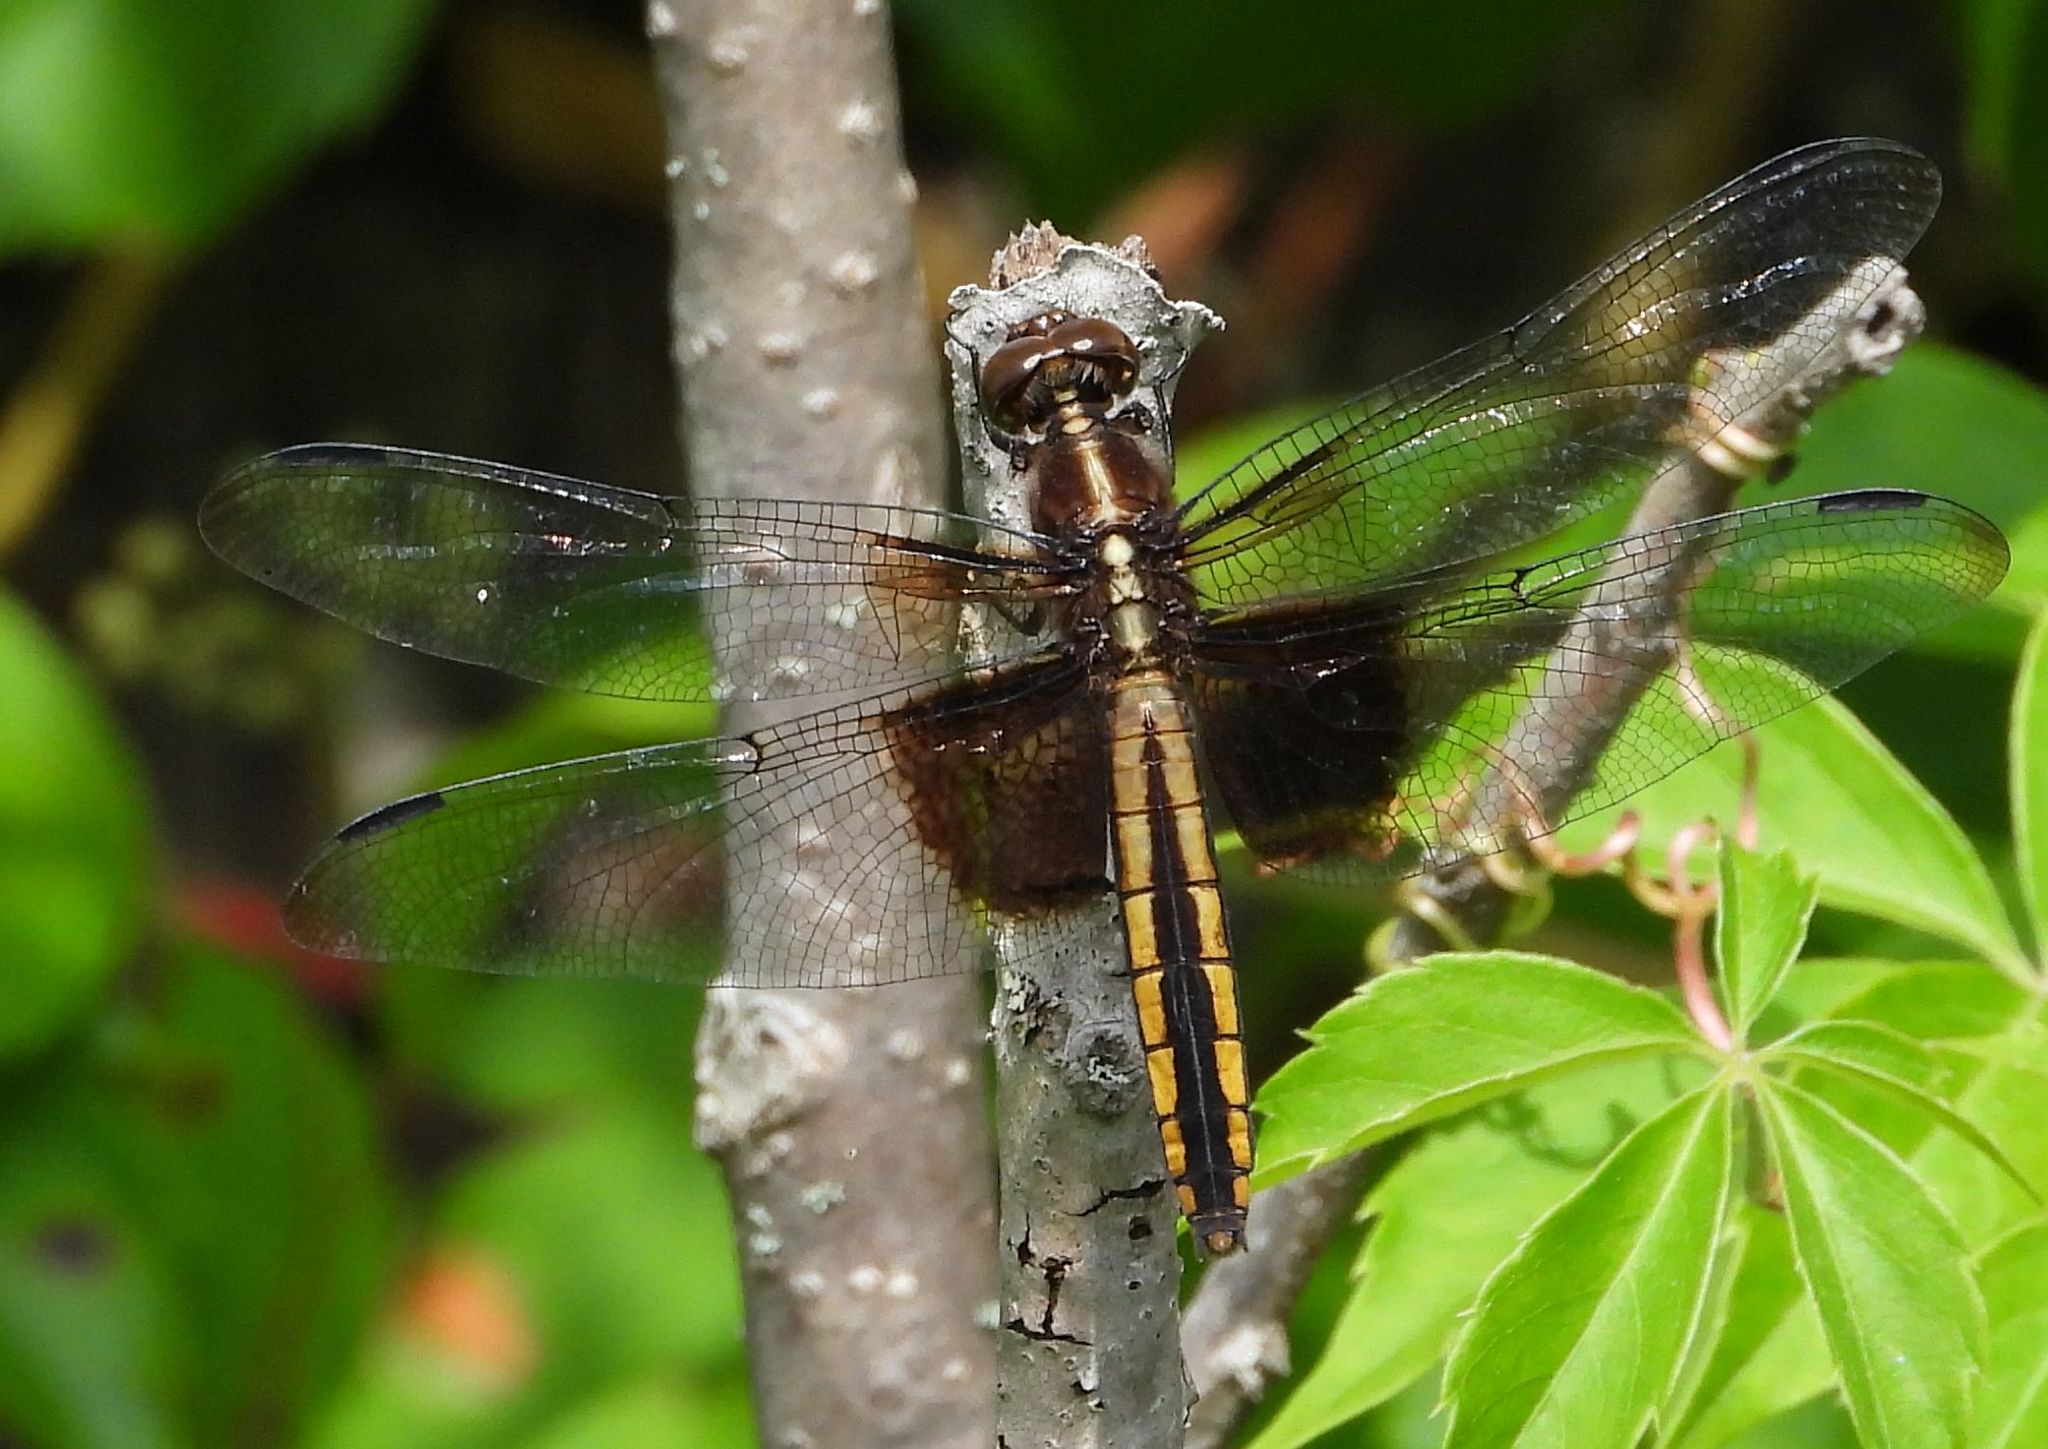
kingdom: Animalia
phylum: Arthropoda
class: Insecta
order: Odonata
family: Libellulidae
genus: Libellula
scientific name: Libellula luctuosa
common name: Widow skimmer
